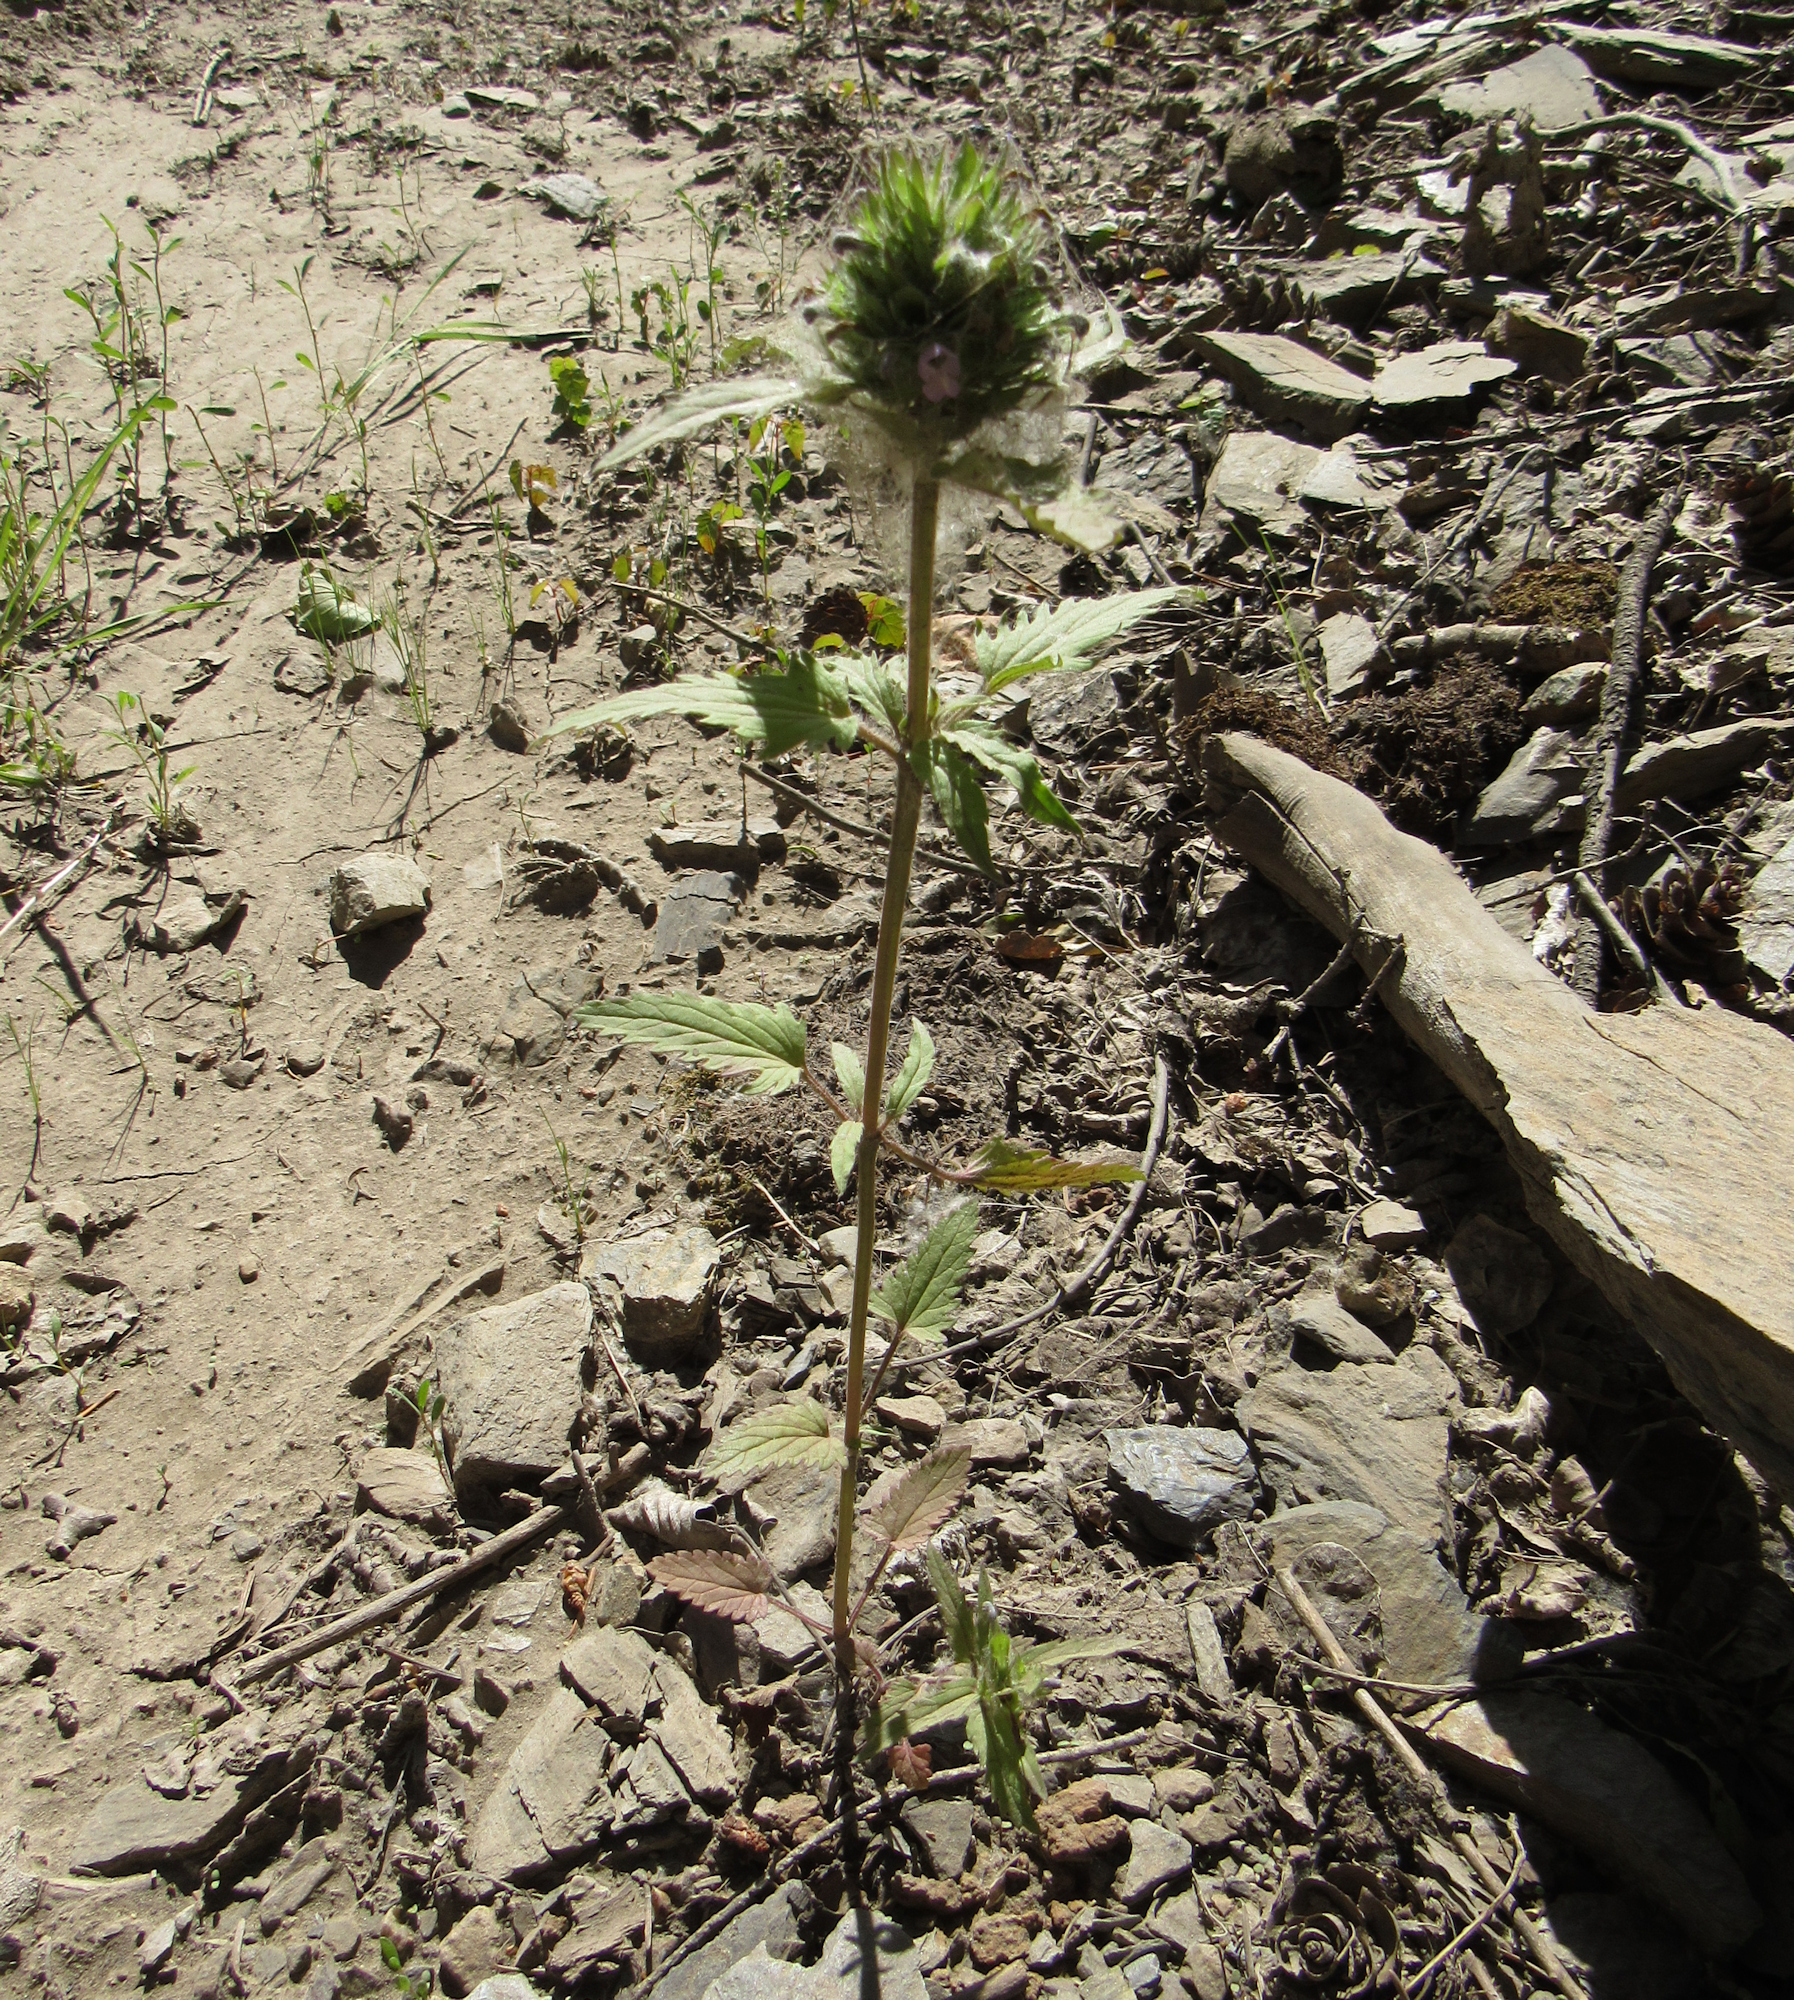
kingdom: Plantae
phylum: Tracheophyta
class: Magnoliopsida
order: Lamiales
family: Lamiaceae
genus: Dracocephalum
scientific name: Dracocephalum parviflorum
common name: American dragonhead
